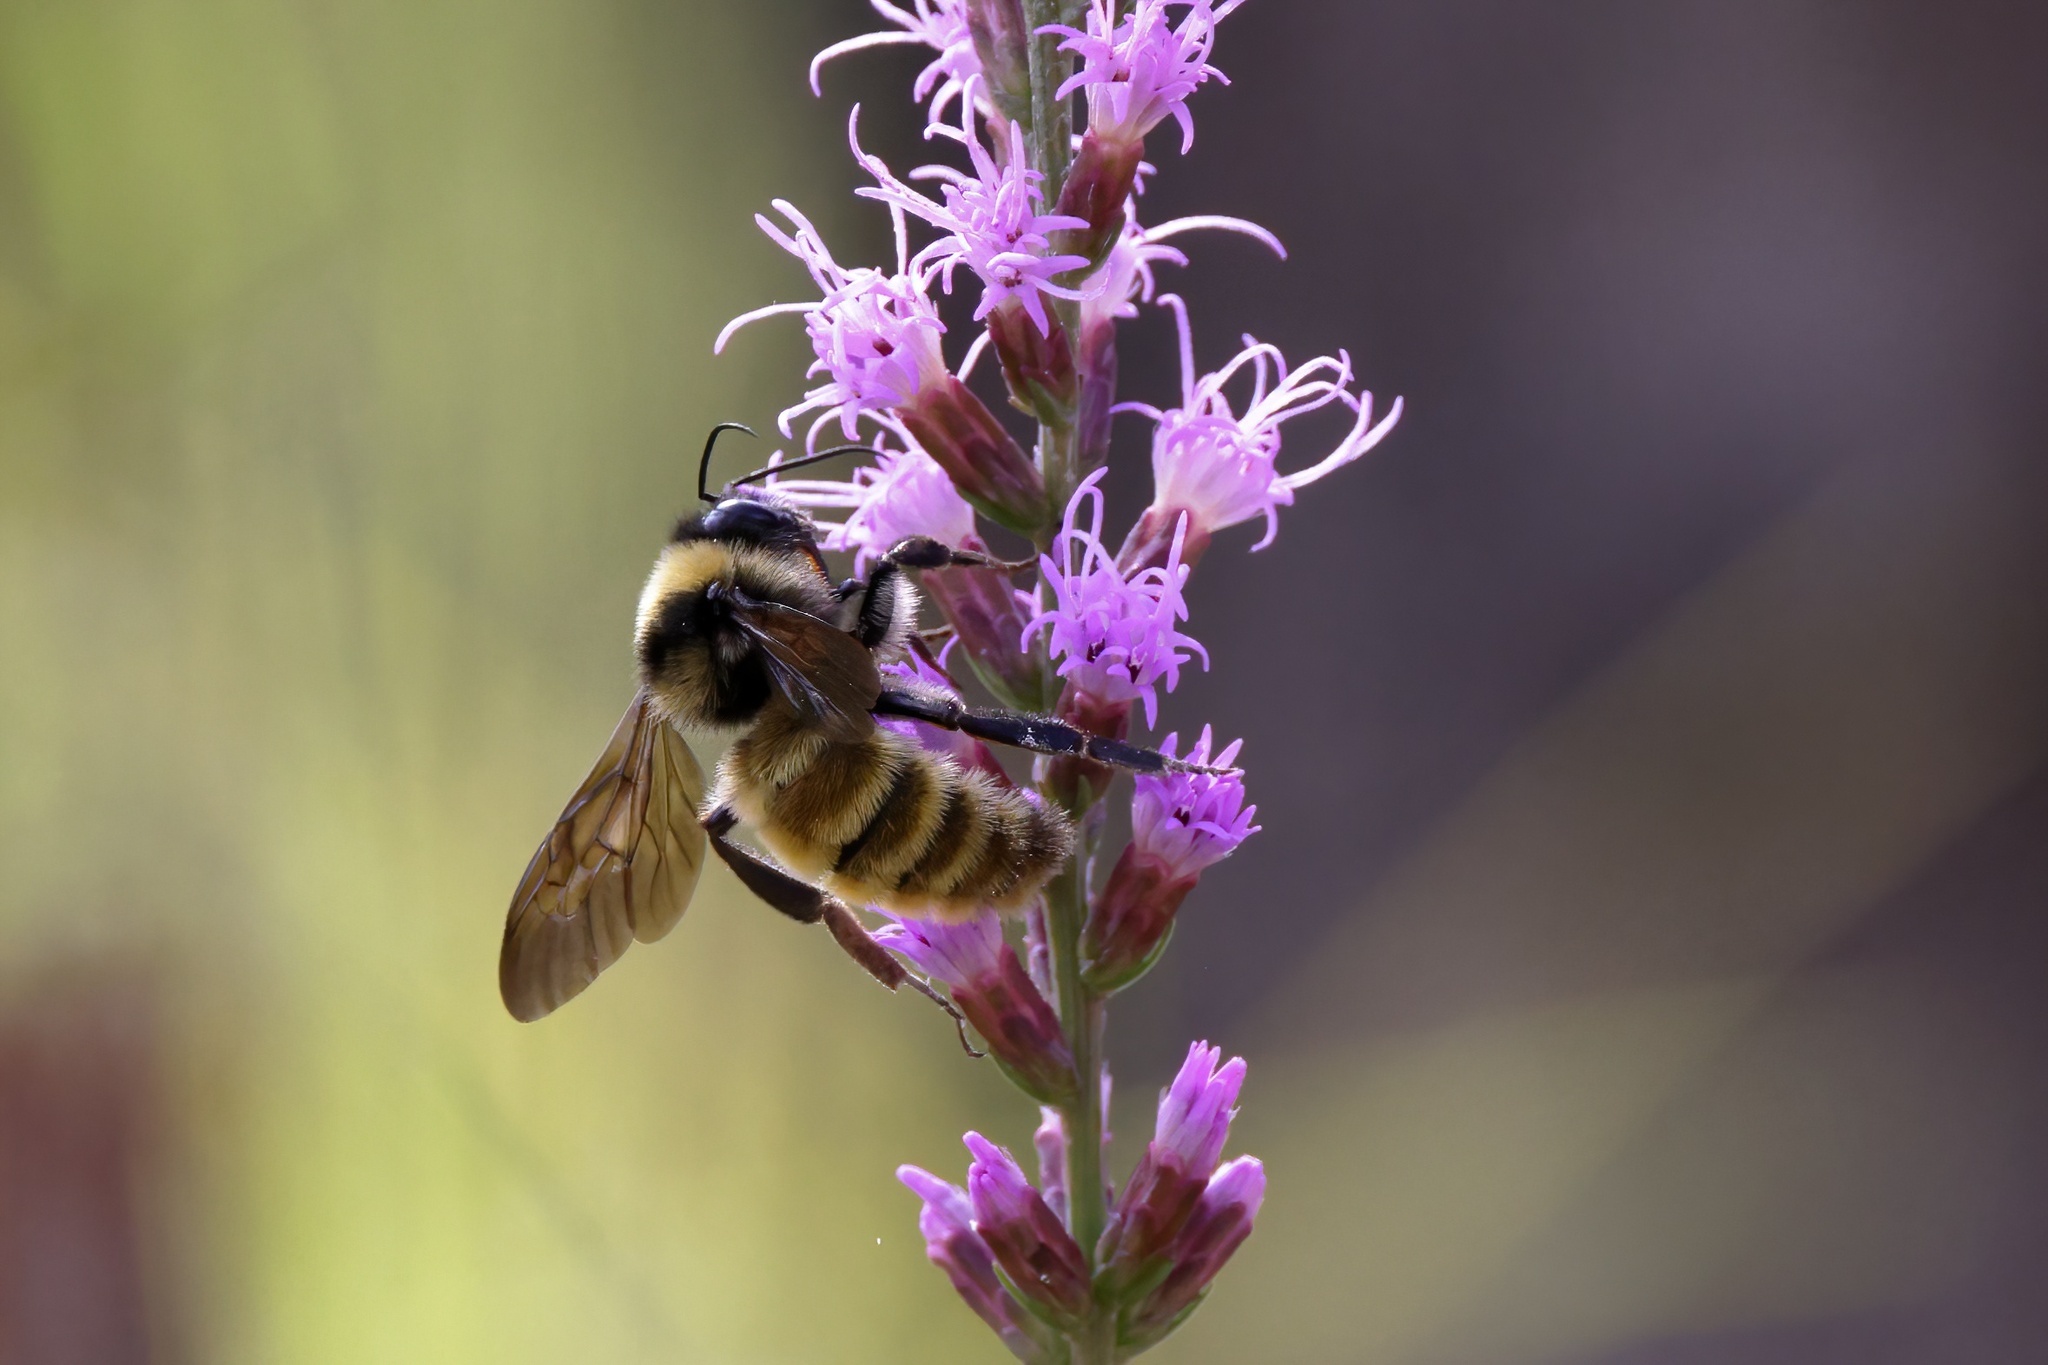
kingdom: Animalia
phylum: Arthropoda
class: Insecta
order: Hymenoptera
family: Apidae
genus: Bombus
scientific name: Bombus pensylvanicus
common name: Bumble bee
